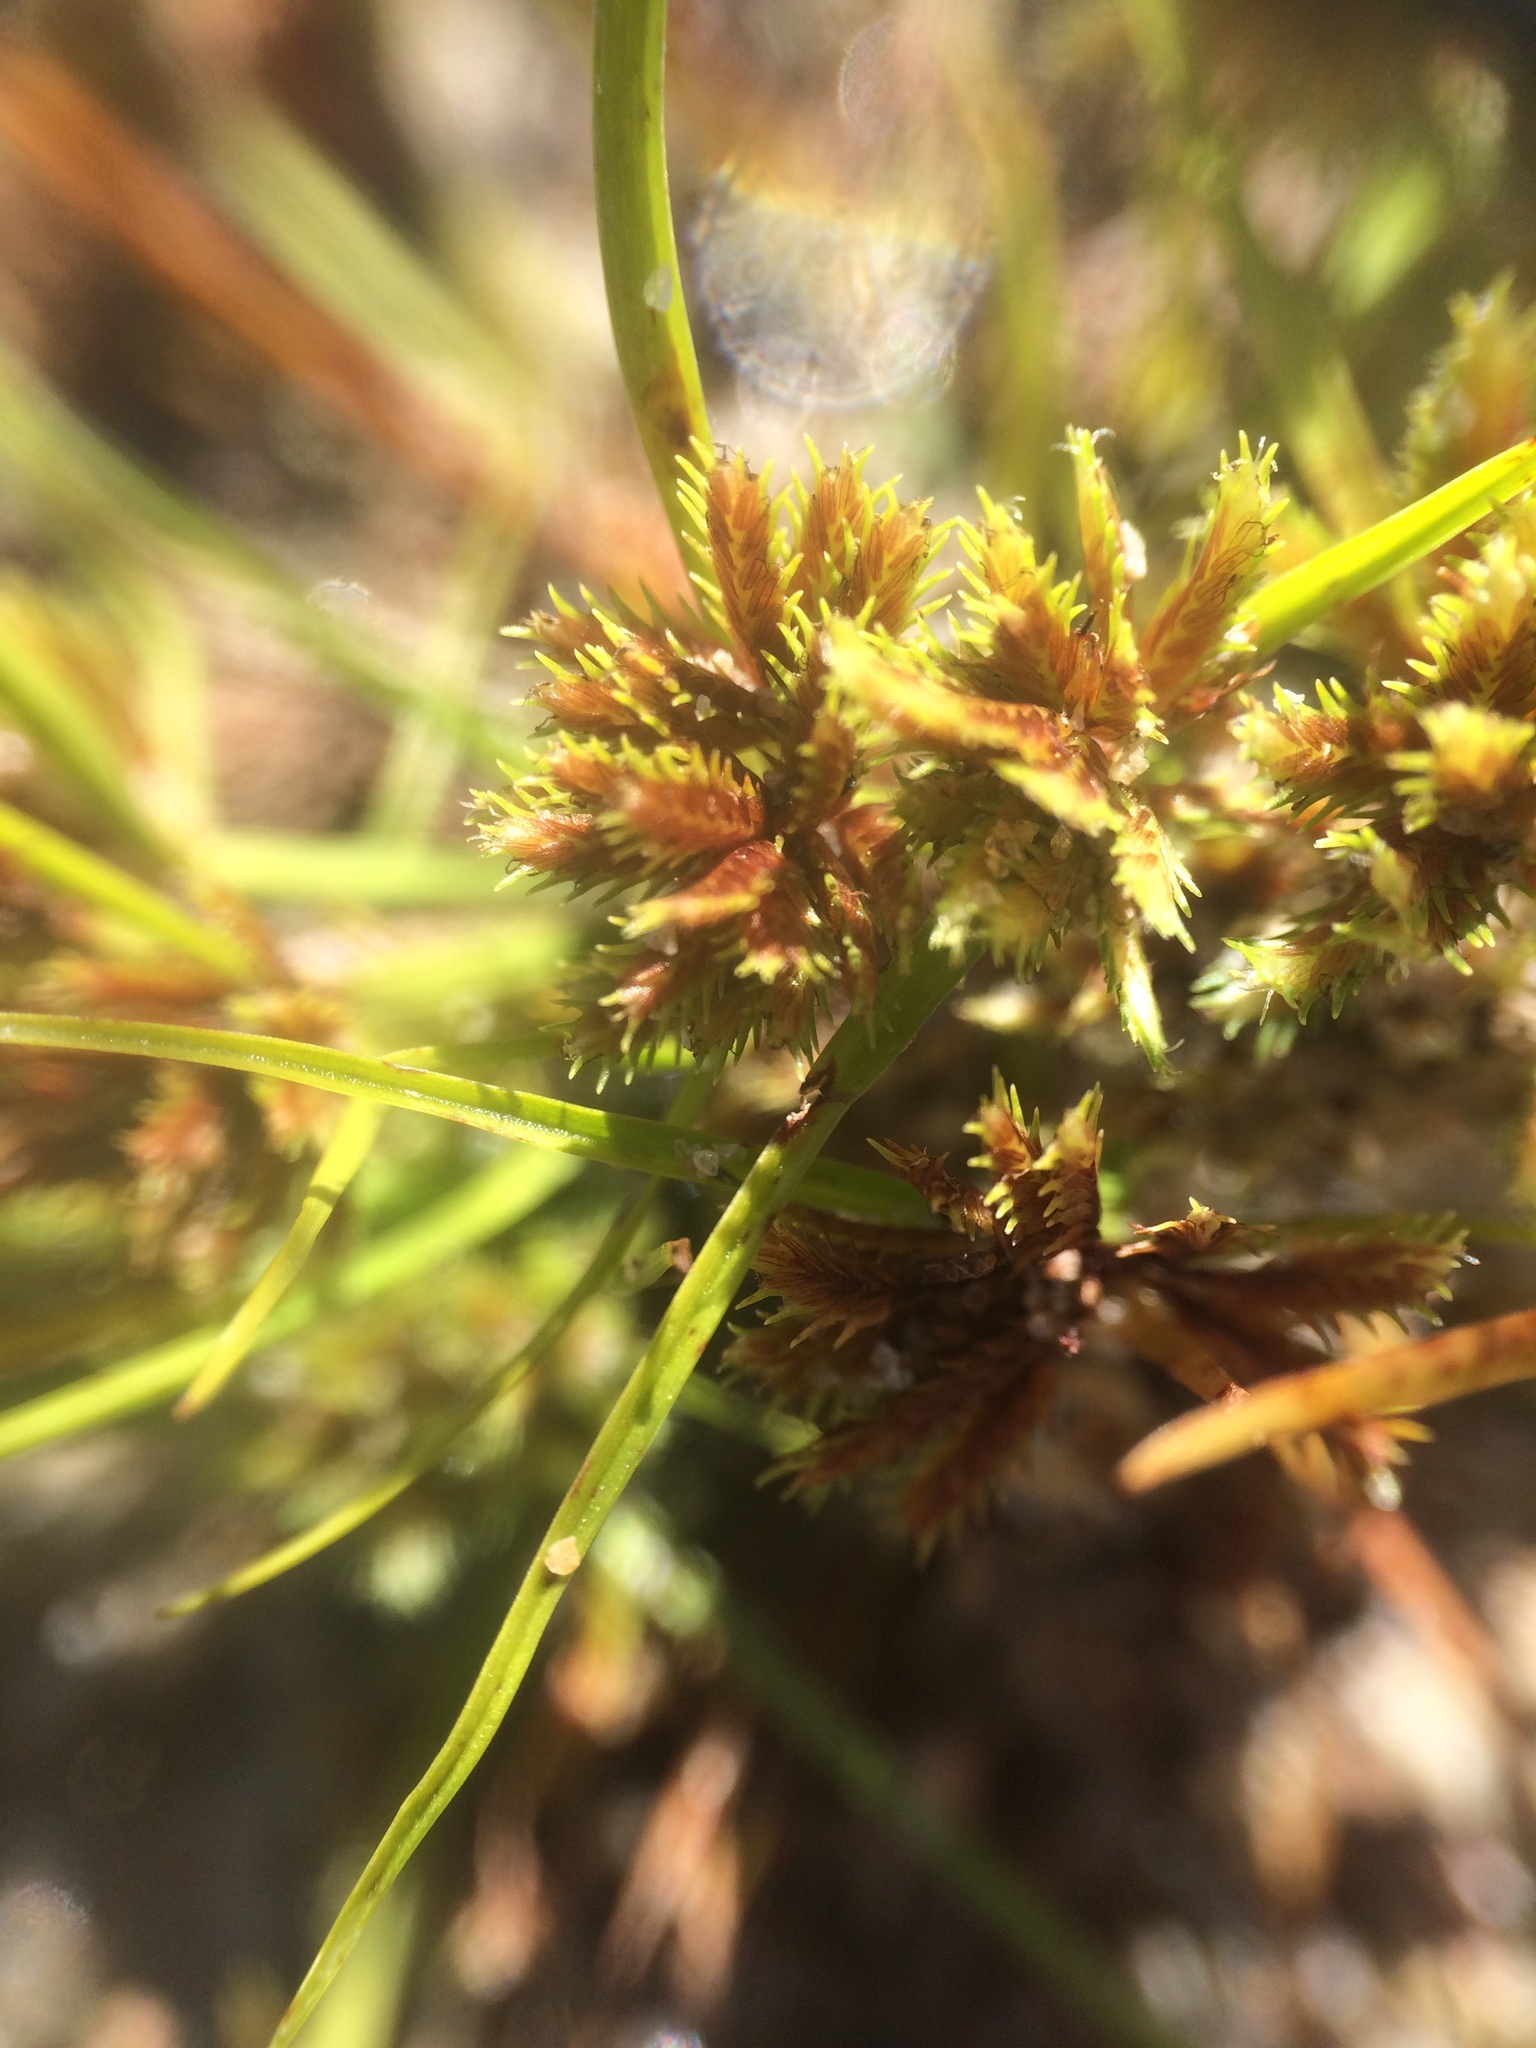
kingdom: Plantae
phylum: Tracheophyta
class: Liliopsida
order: Poales
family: Cyperaceae
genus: Cyperus
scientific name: Cyperus squarrosus
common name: Awned cyperus
